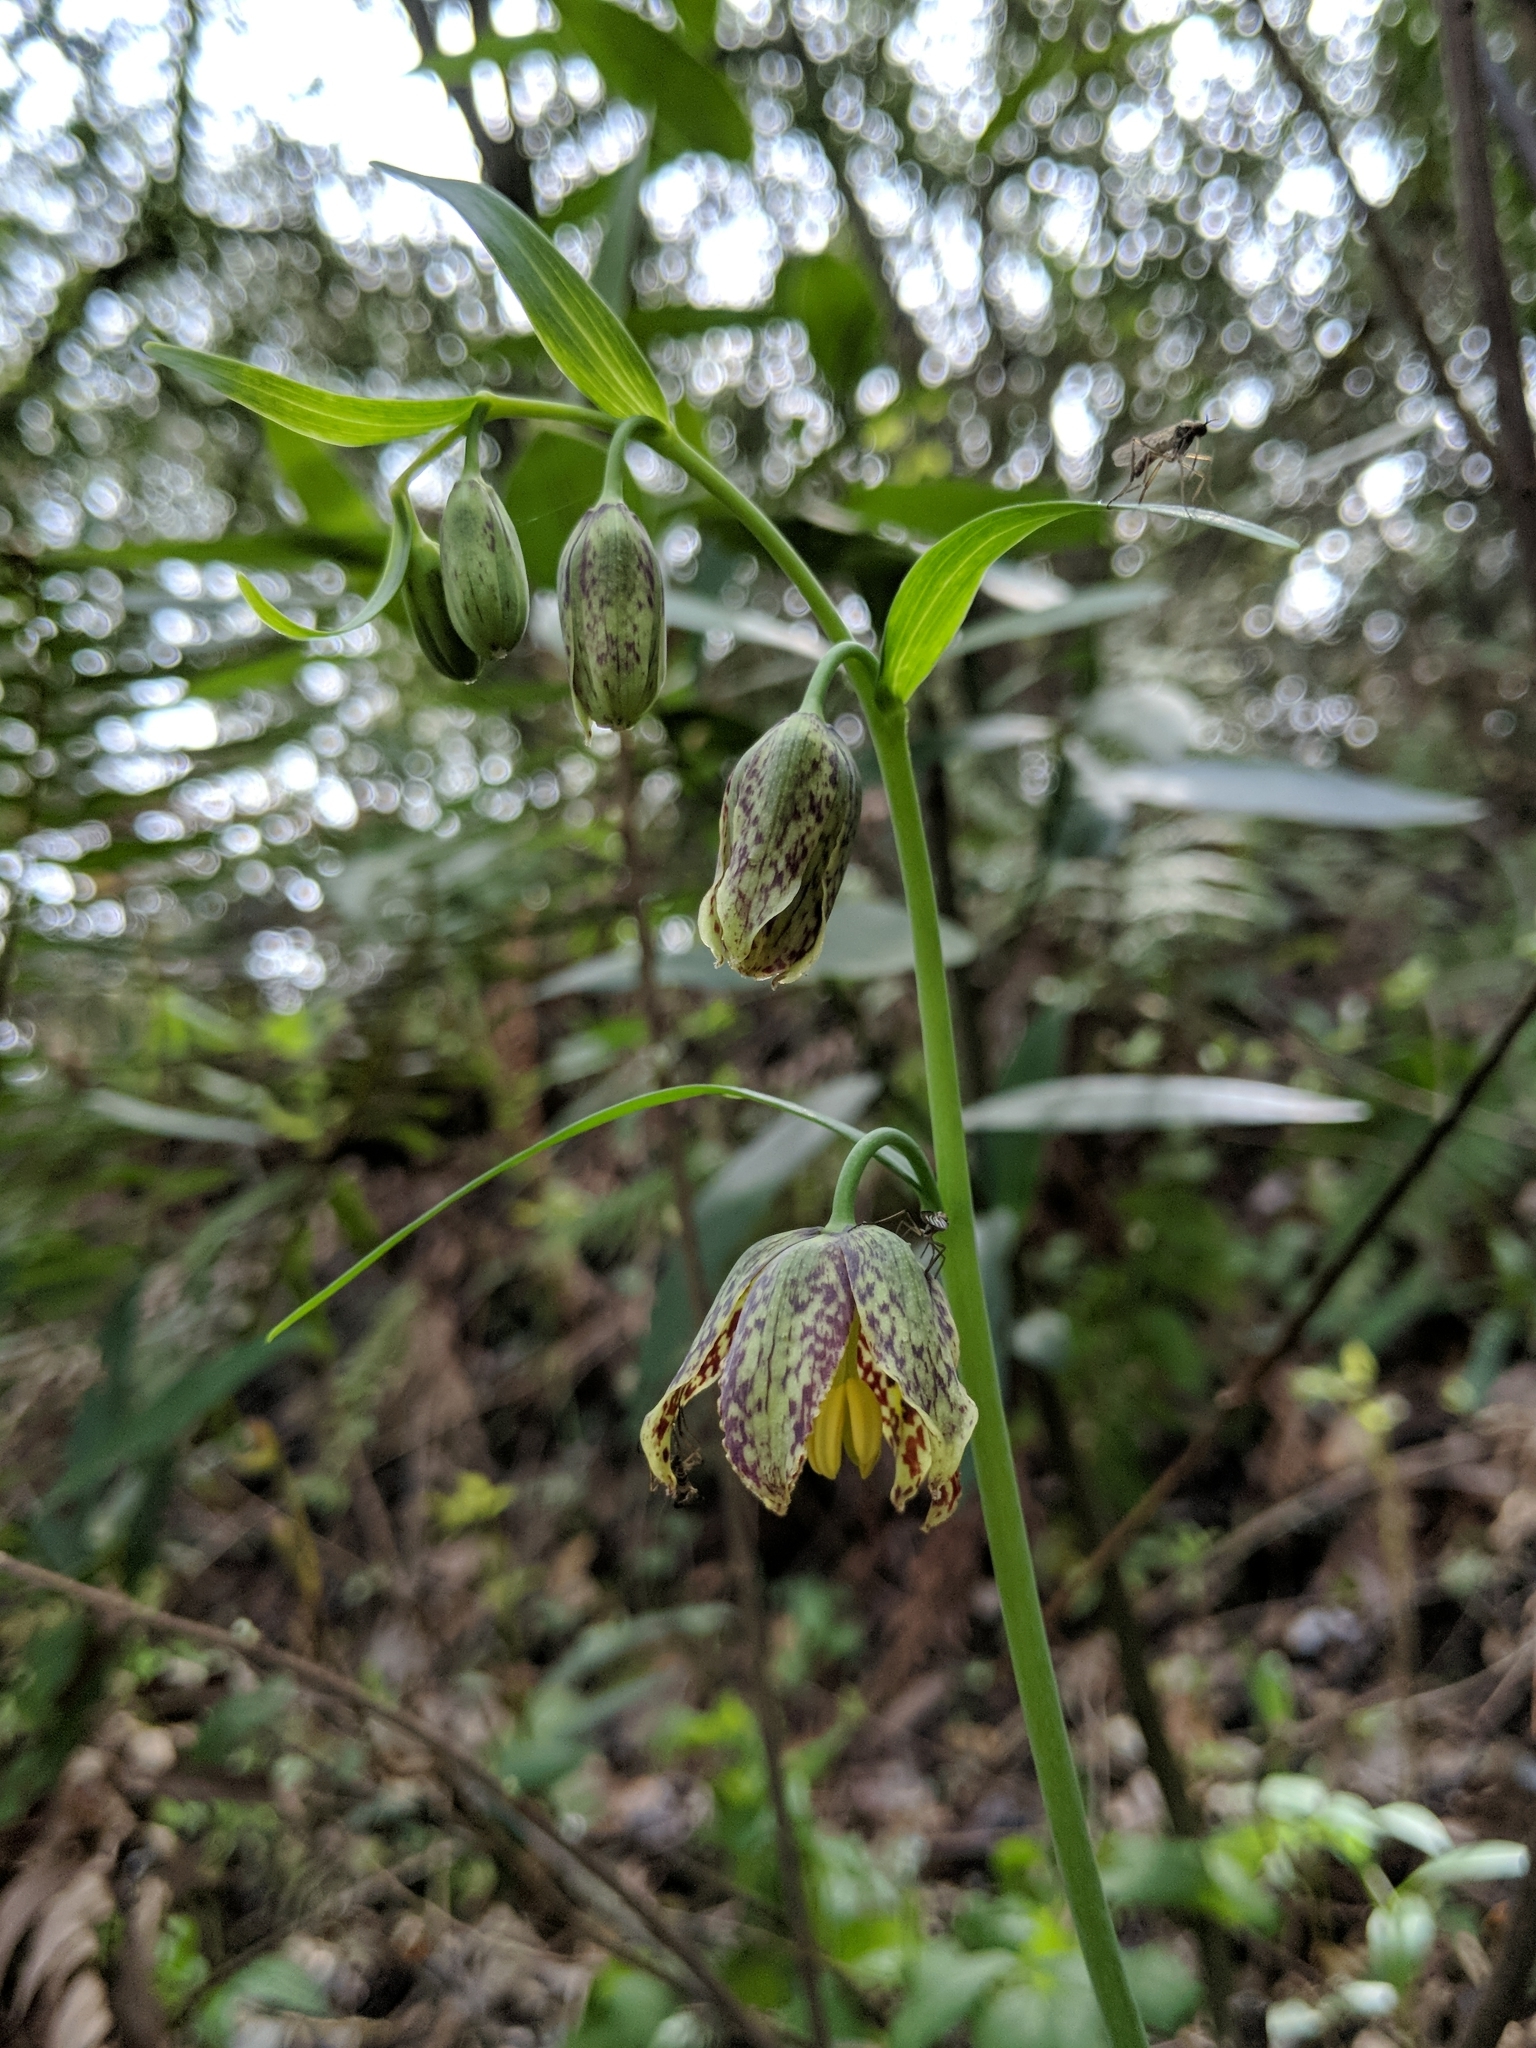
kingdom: Plantae
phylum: Tracheophyta
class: Liliopsida
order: Liliales
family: Liliaceae
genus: Fritillaria
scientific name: Fritillaria affinis
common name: Ojai fritillary
